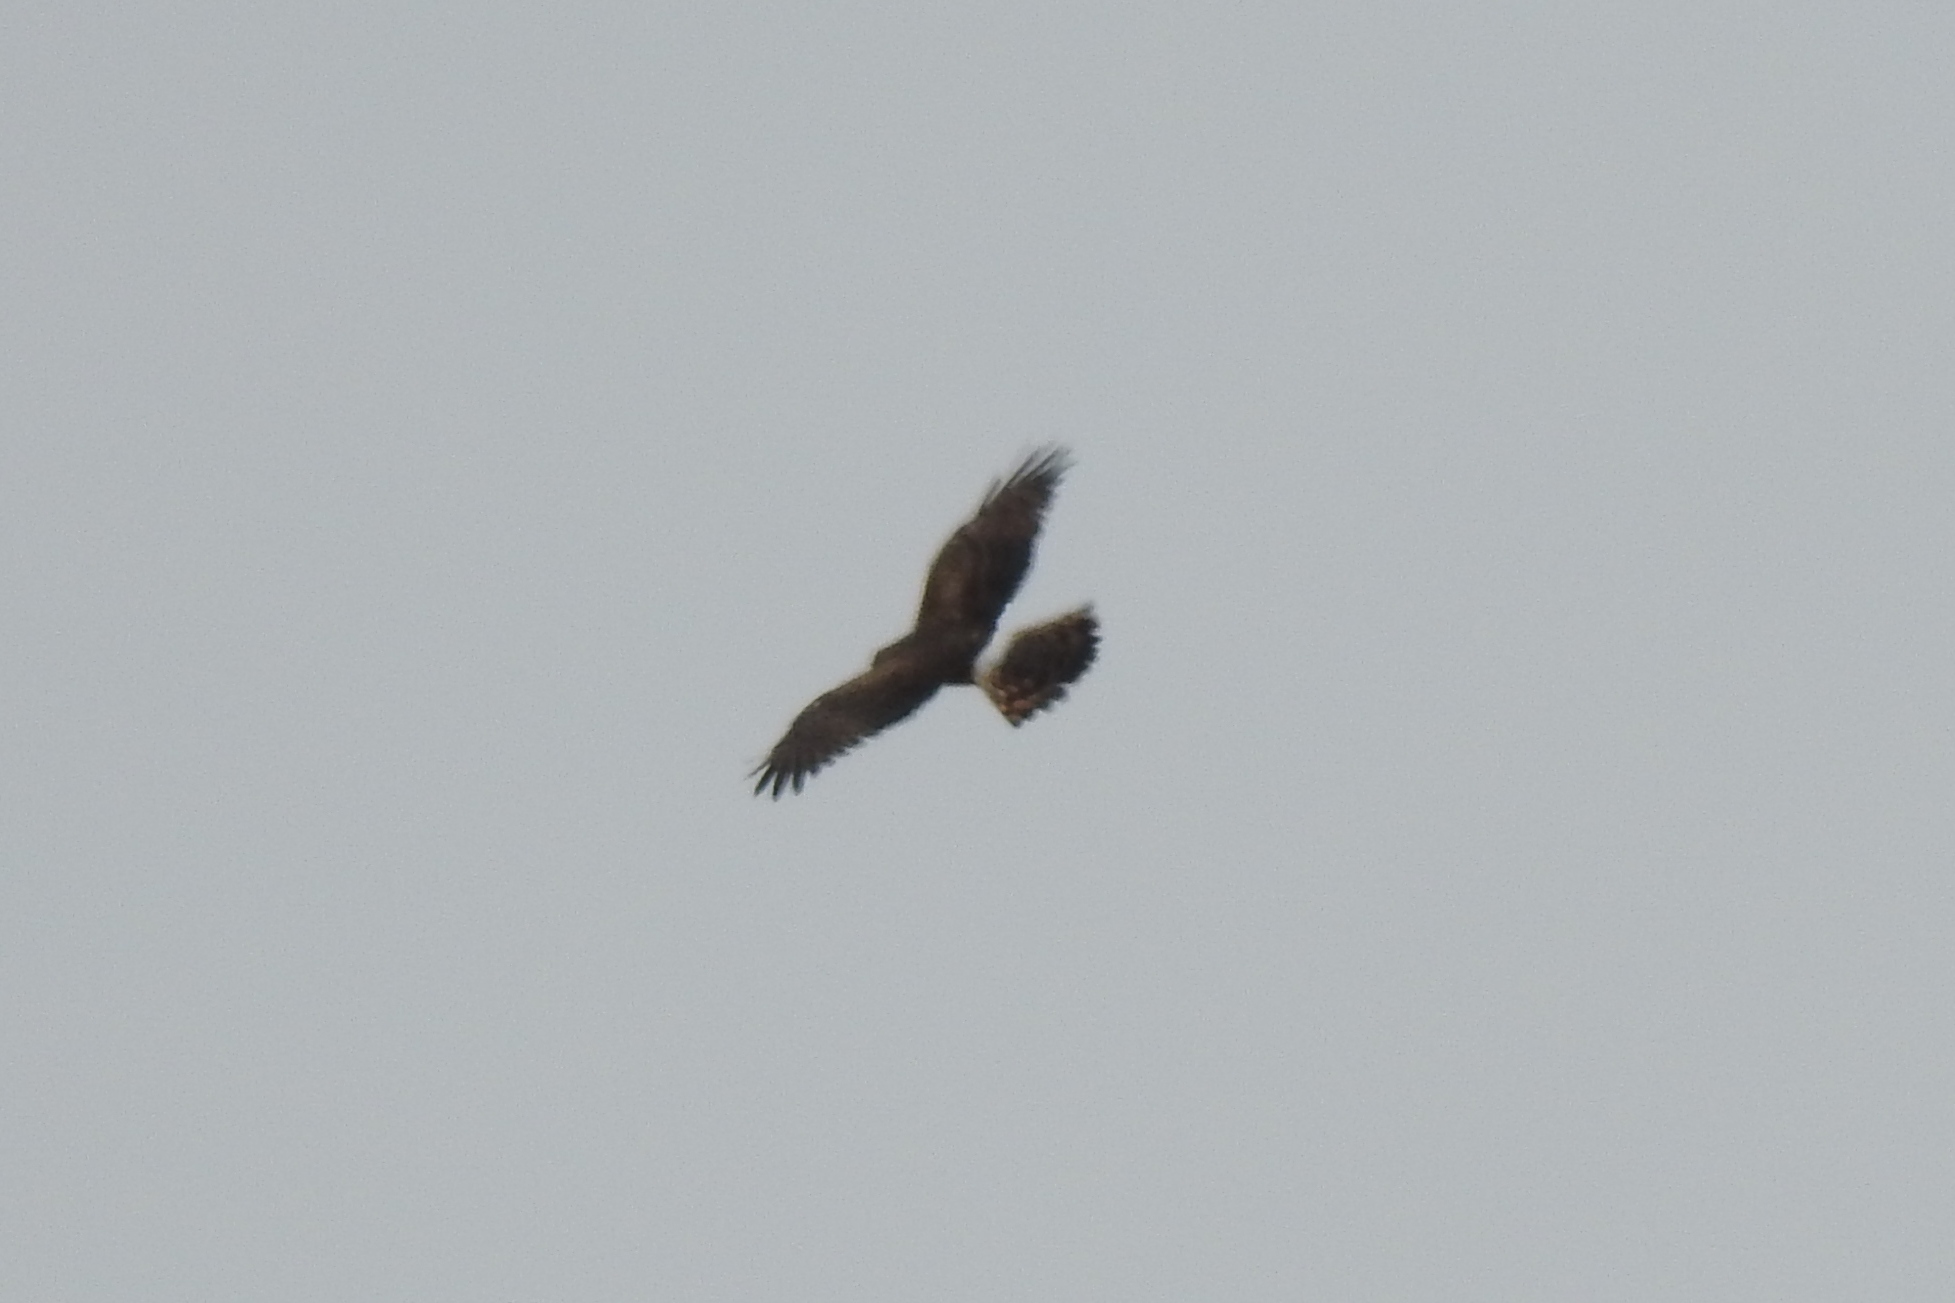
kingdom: Animalia
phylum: Chordata
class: Aves
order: Accipitriformes
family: Accipitridae
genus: Circus
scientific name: Circus cyaneus
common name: Hen harrier
